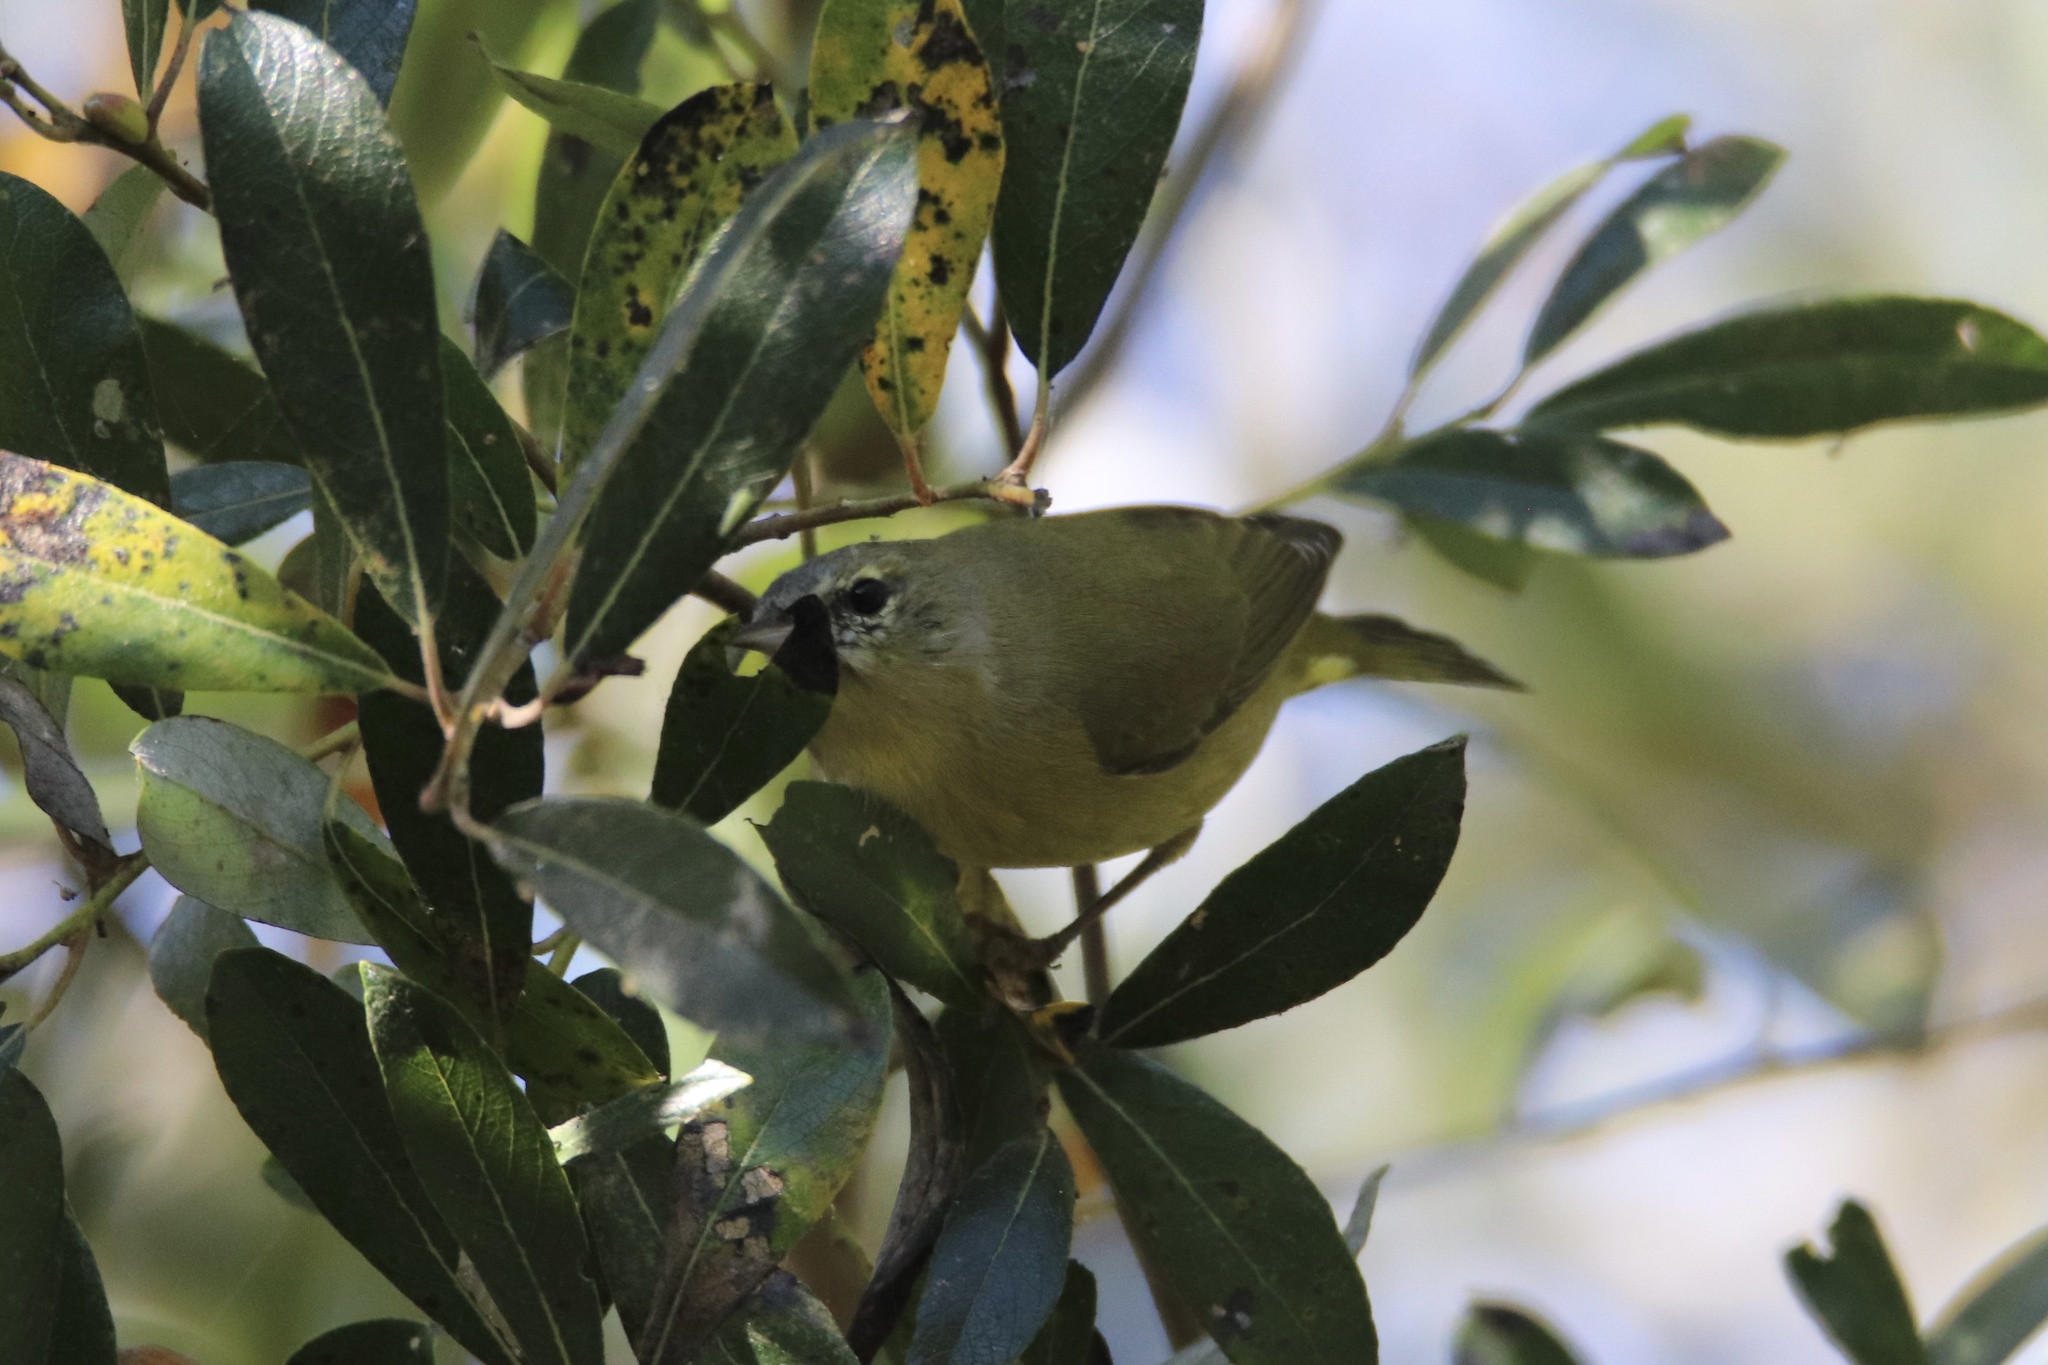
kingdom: Animalia
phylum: Chordata
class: Aves
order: Passeriformes
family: Parulidae
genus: Leiothlypis
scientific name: Leiothlypis celata
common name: Orange-crowned warbler
